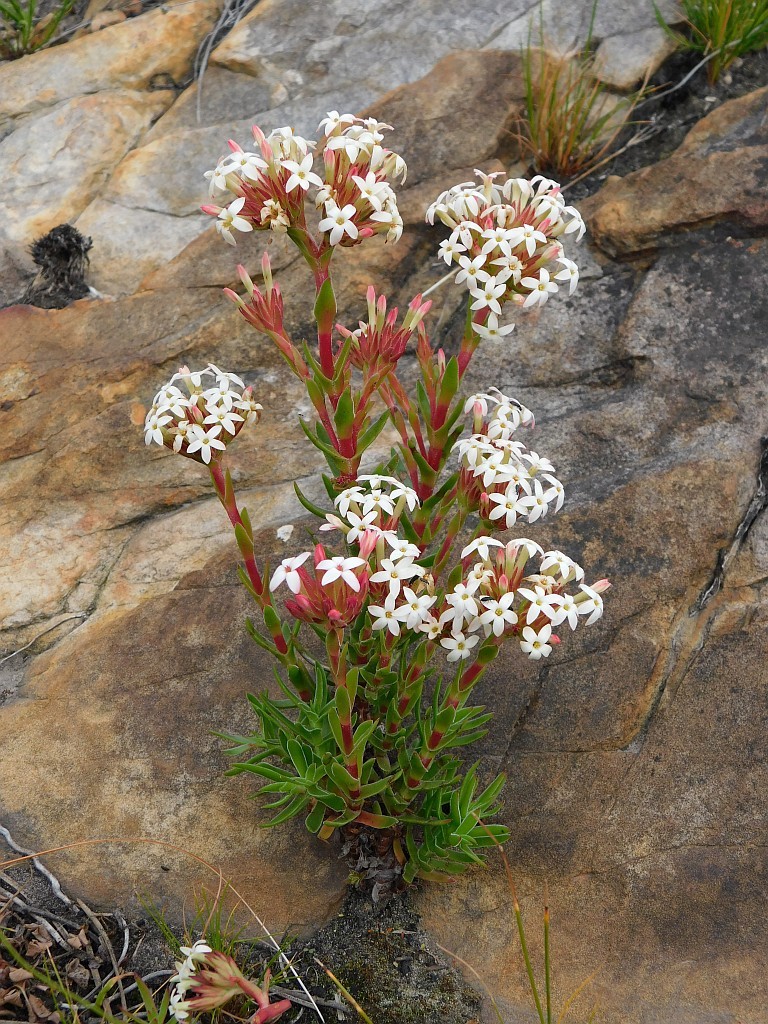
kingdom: Plantae
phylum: Tracheophyta
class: Magnoliopsida
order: Saxifragales
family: Crassulaceae
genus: Crassula
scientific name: Crassula fascicularis
